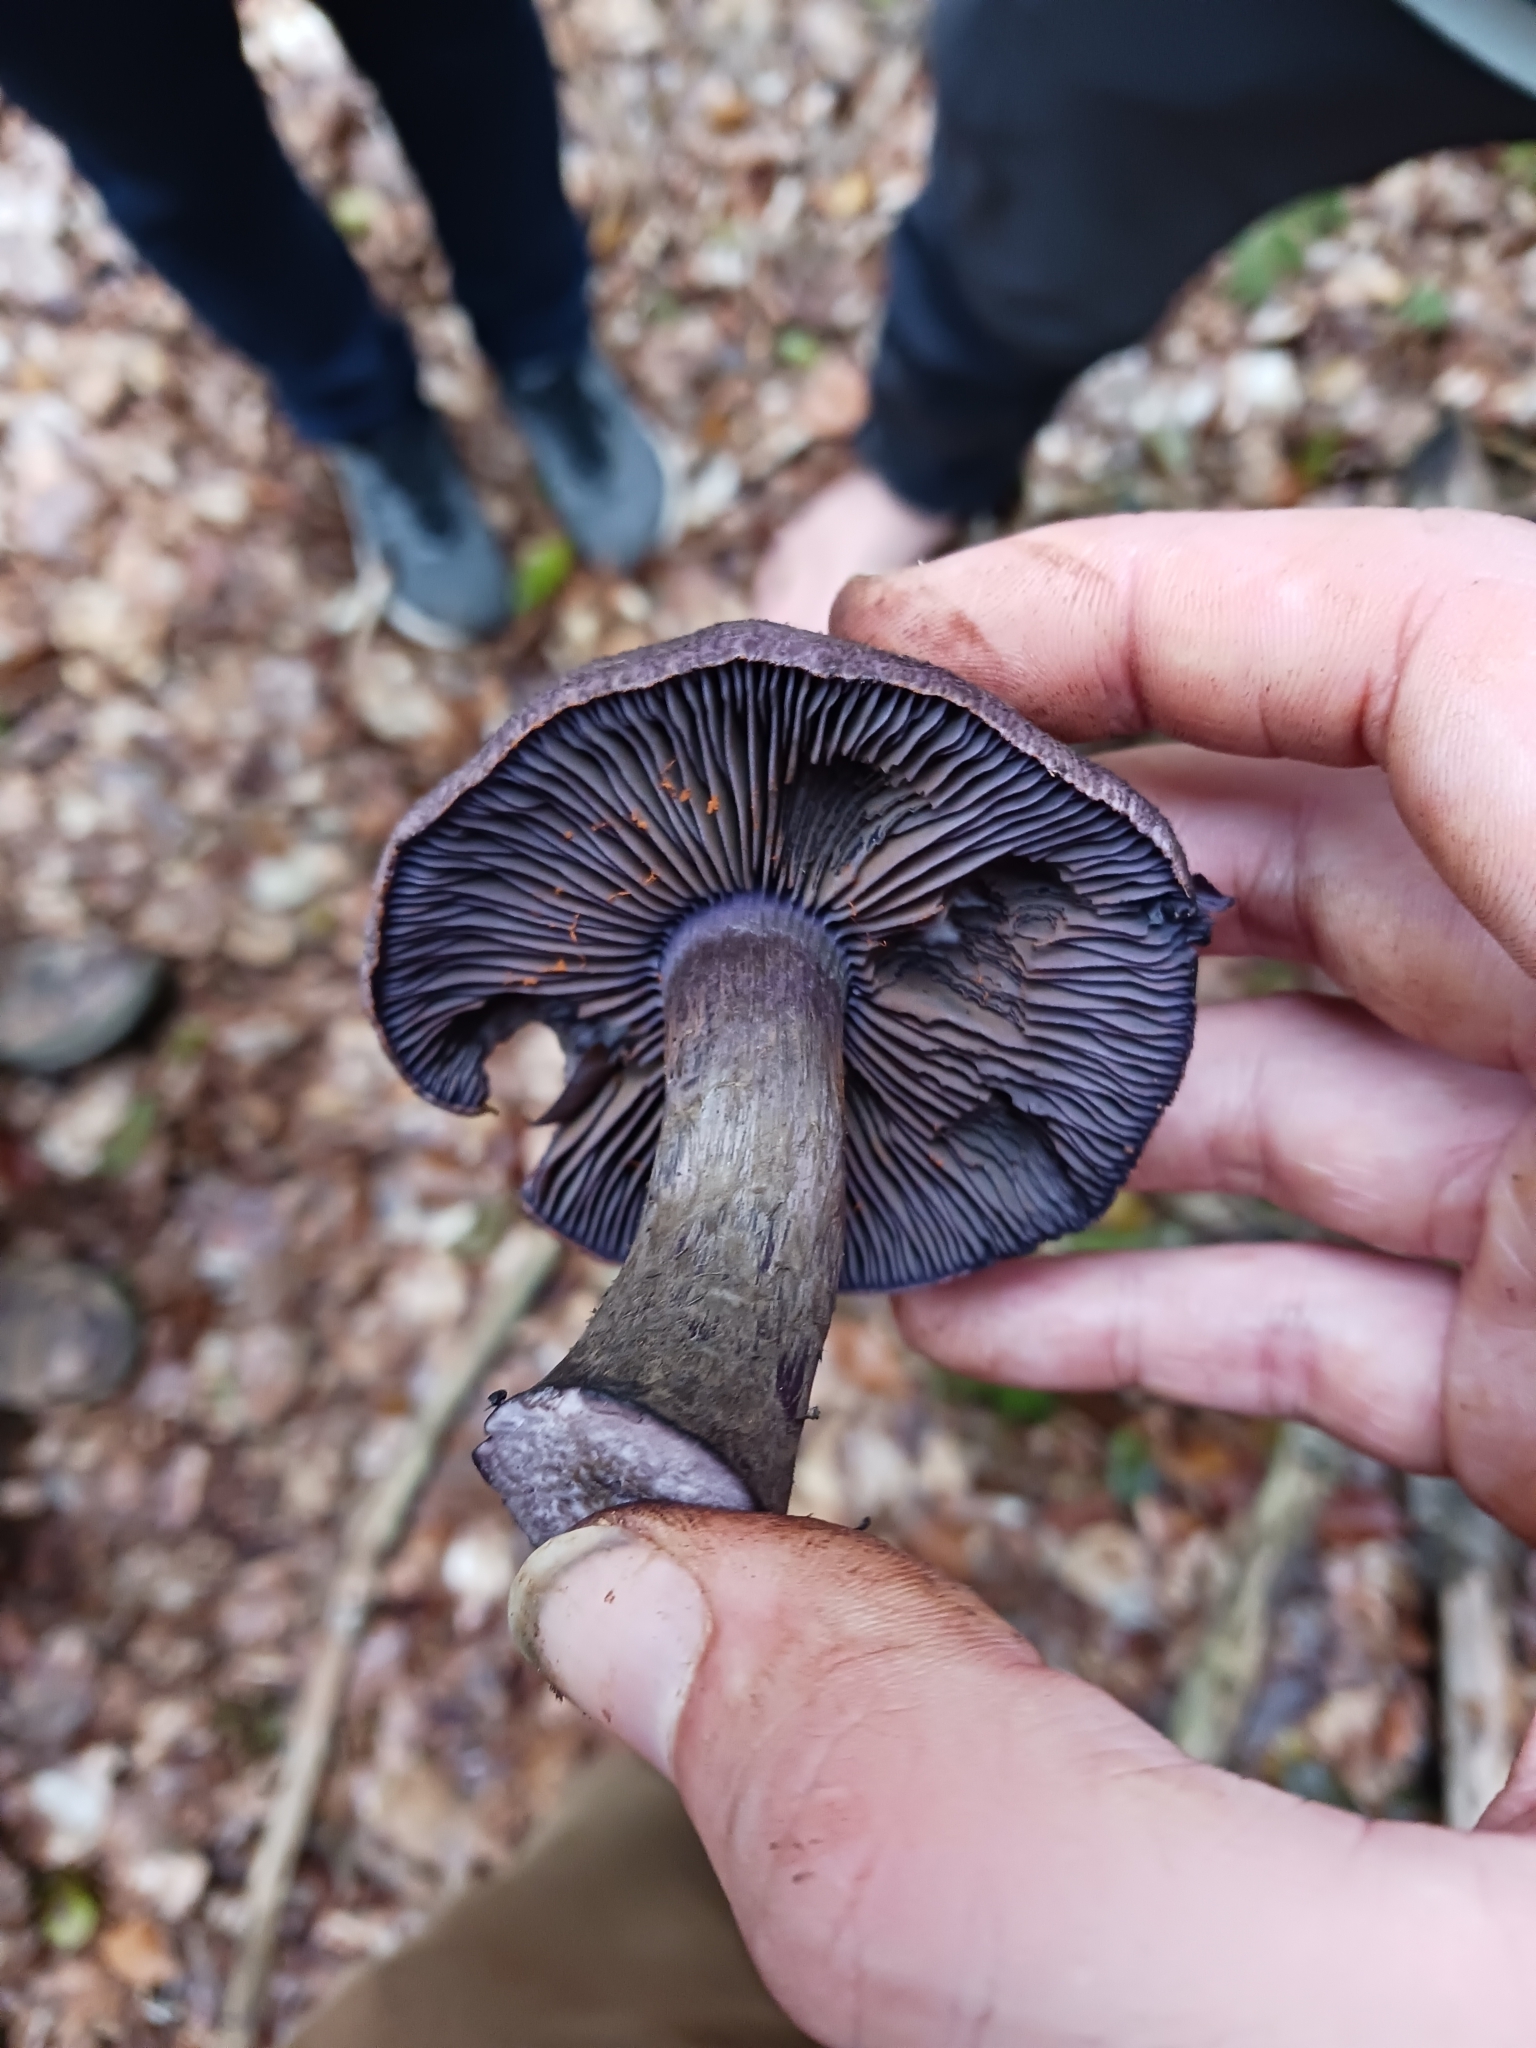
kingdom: Fungi
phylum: Basidiomycota
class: Agaricomycetes
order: Agaricales
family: Cortinariaceae
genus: Cortinarius
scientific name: Cortinarius violaceus
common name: Violet webcap
